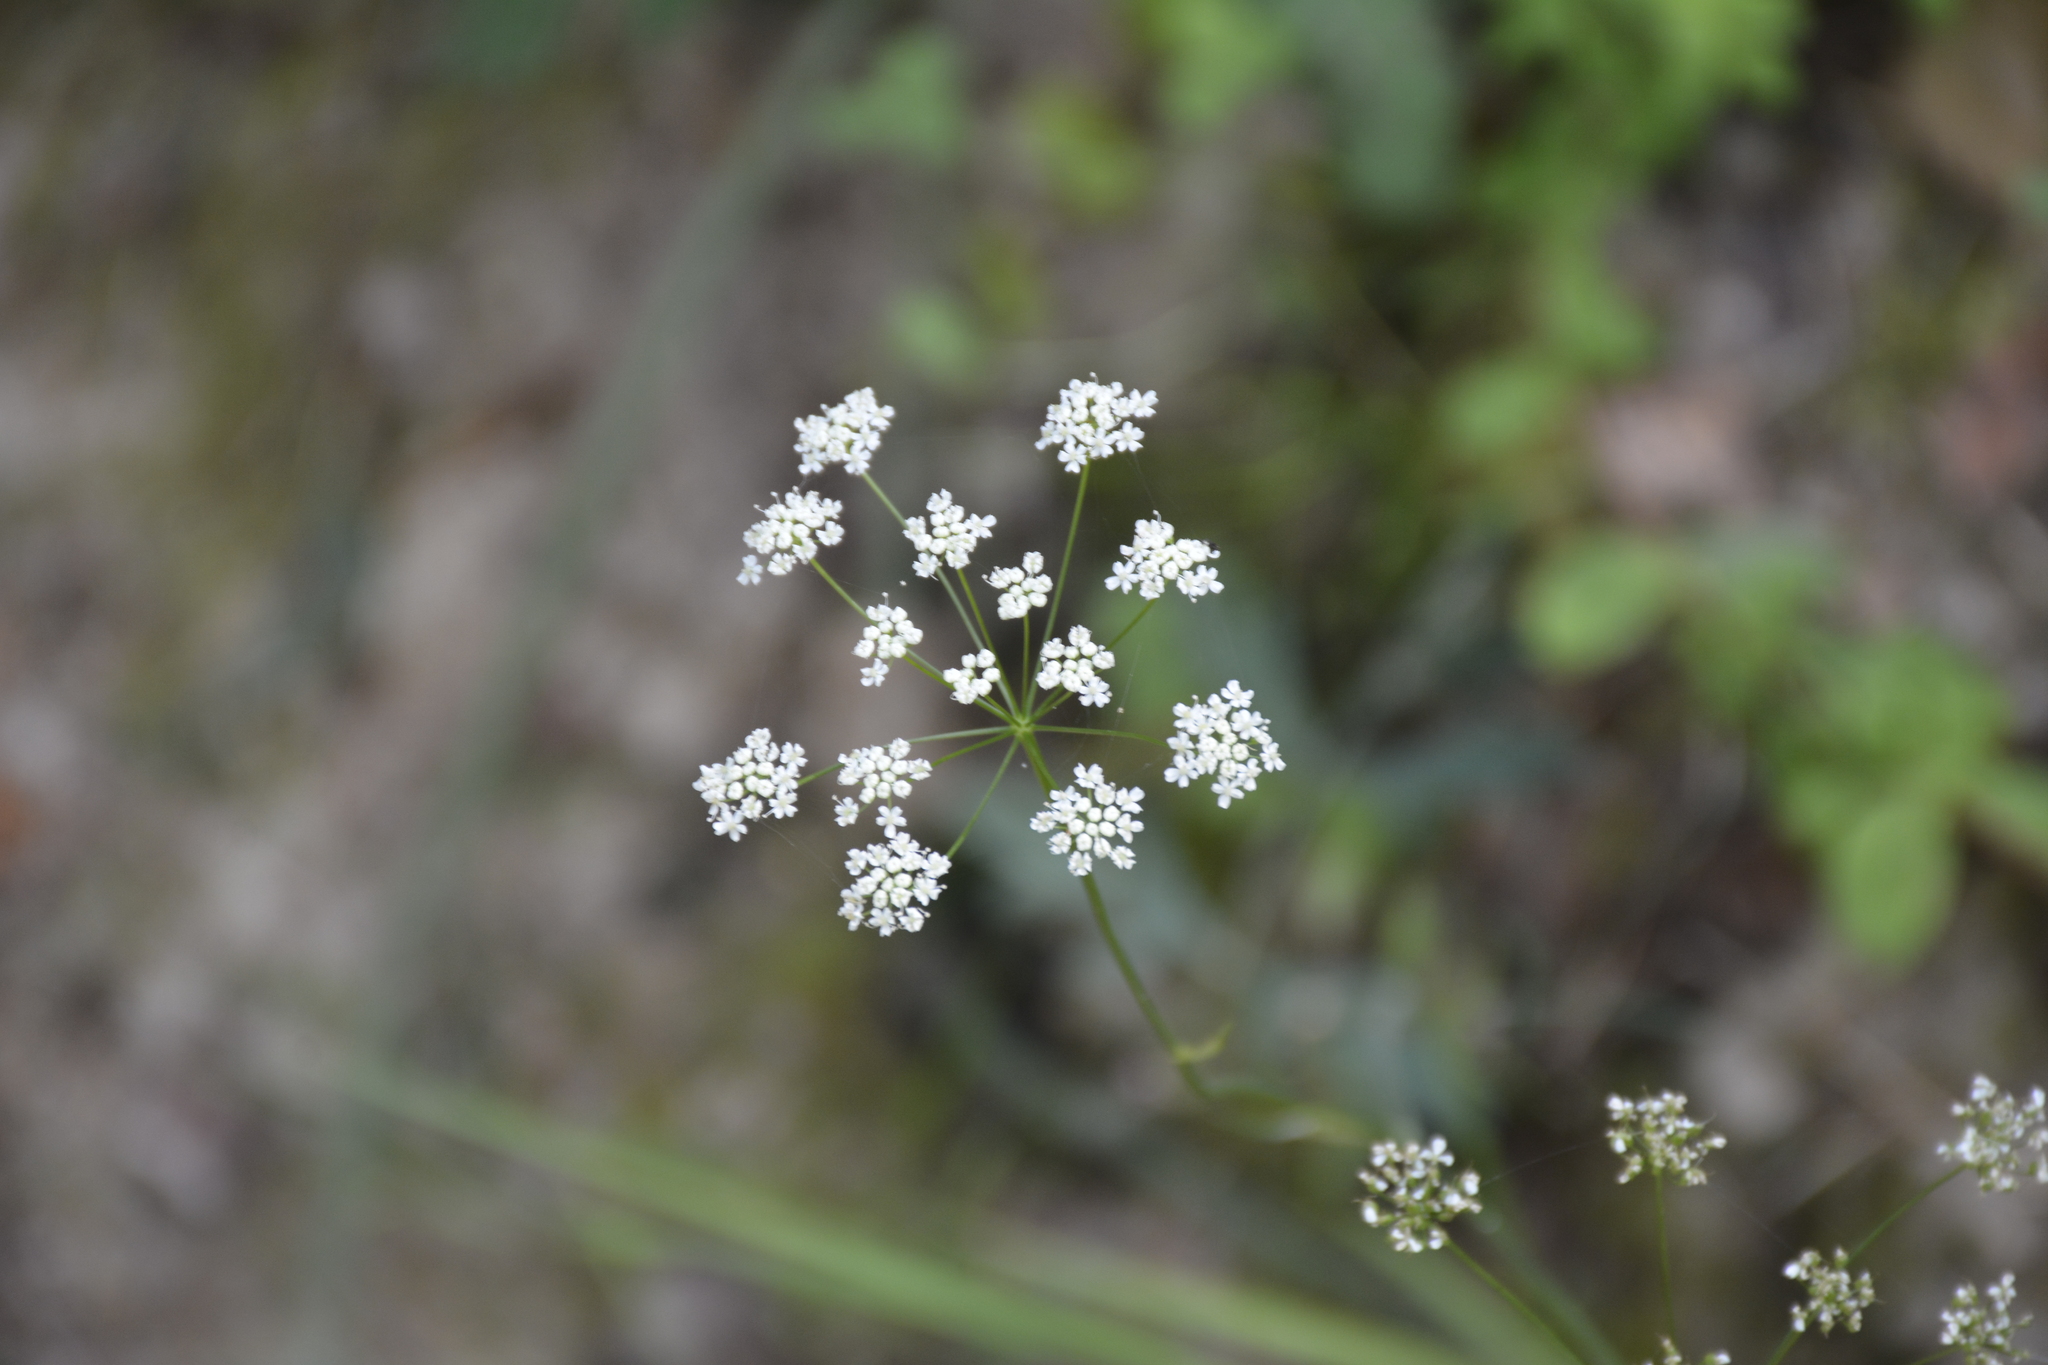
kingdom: Plantae
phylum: Tracheophyta
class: Magnoliopsida
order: Apiales
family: Apiaceae
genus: Pimpinella
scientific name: Pimpinella saxifraga
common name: Burnet-saxifrage
